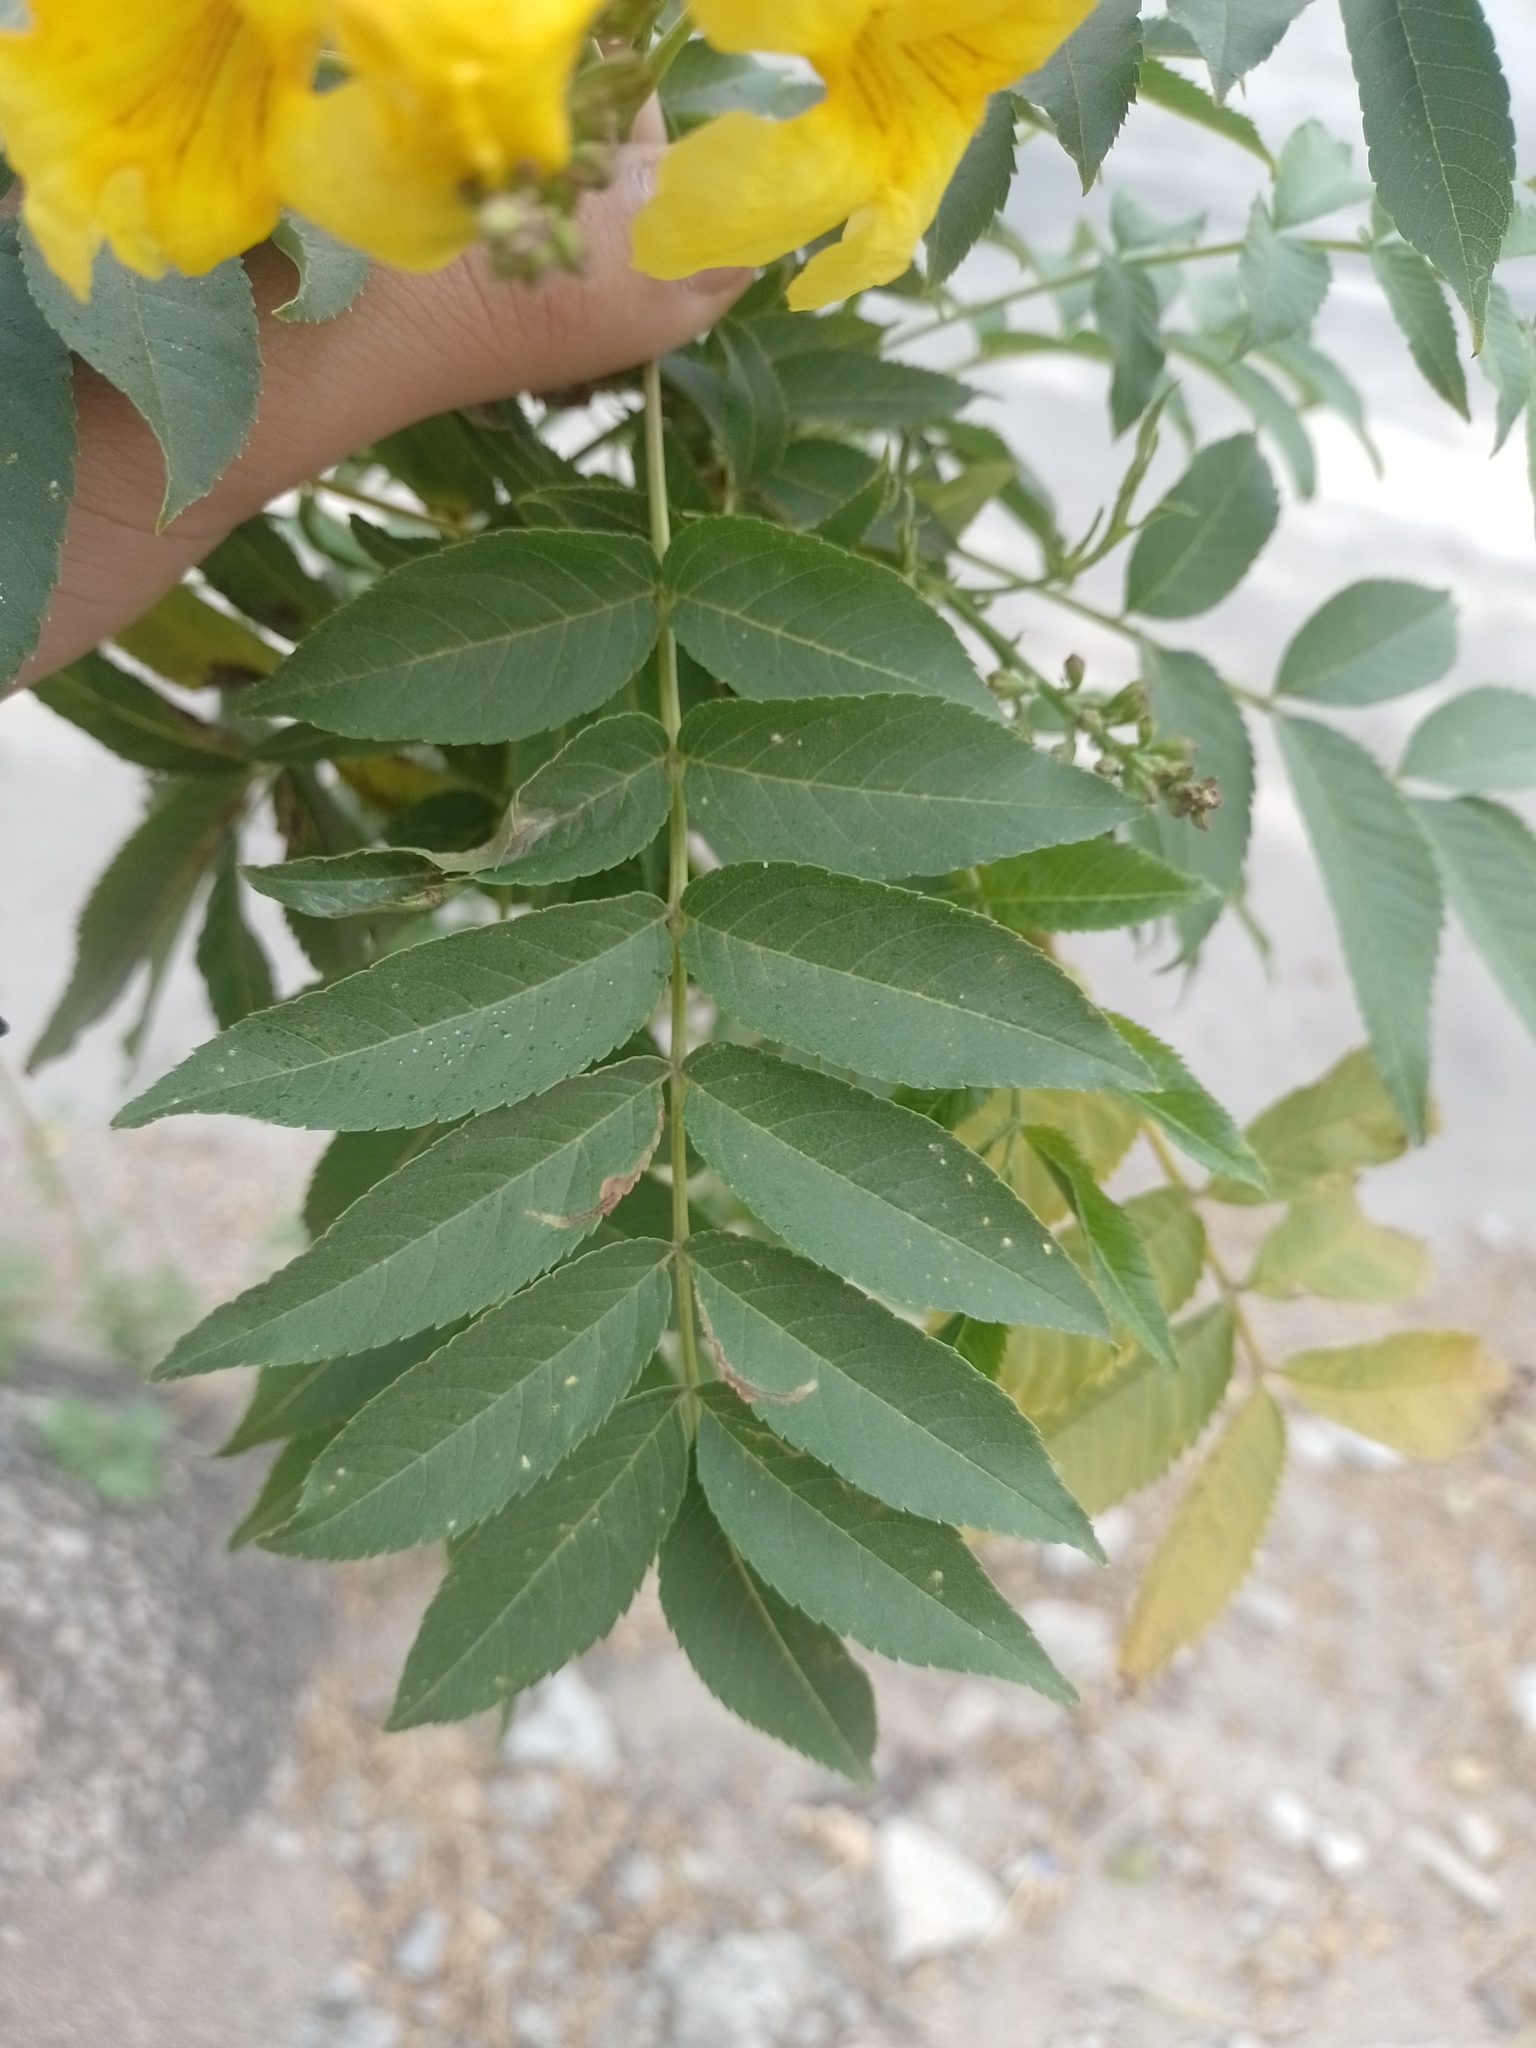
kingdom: Plantae
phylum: Tracheophyta
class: Magnoliopsida
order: Lamiales
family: Bignoniaceae
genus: Tecoma
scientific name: Tecoma stans
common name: Yellow trumpetbush
